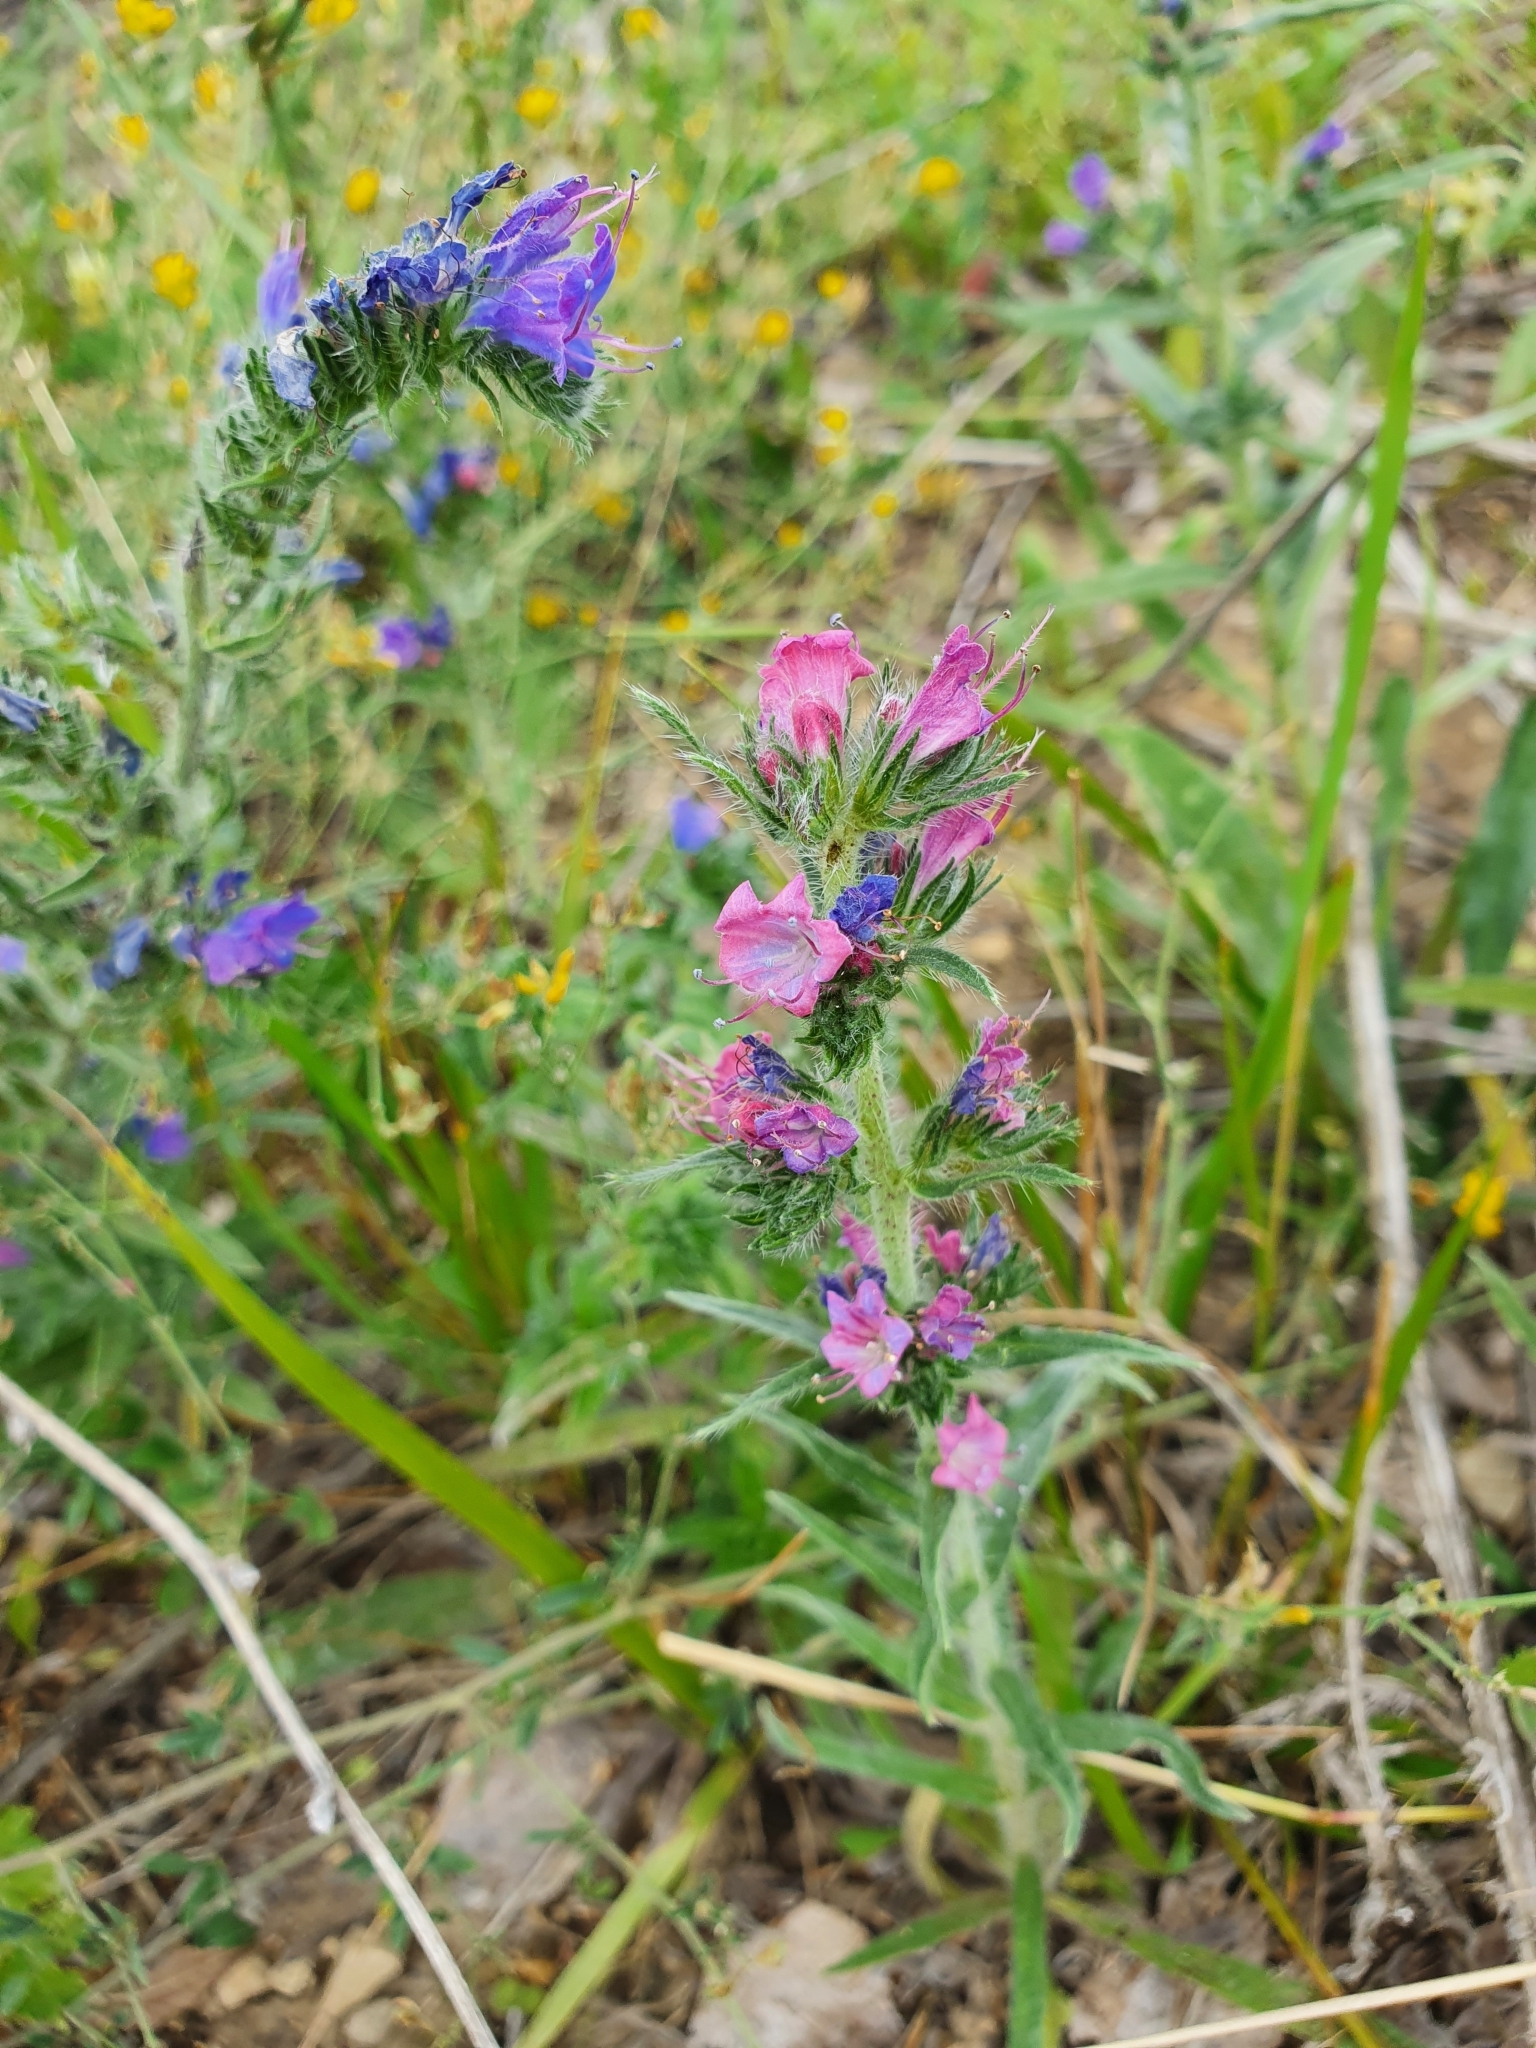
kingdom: Plantae
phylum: Tracheophyta
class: Magnoliopsida
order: Boraginales
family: Boraginaceae
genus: Echium
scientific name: Echium vulgare
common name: Common viper's bugloss
